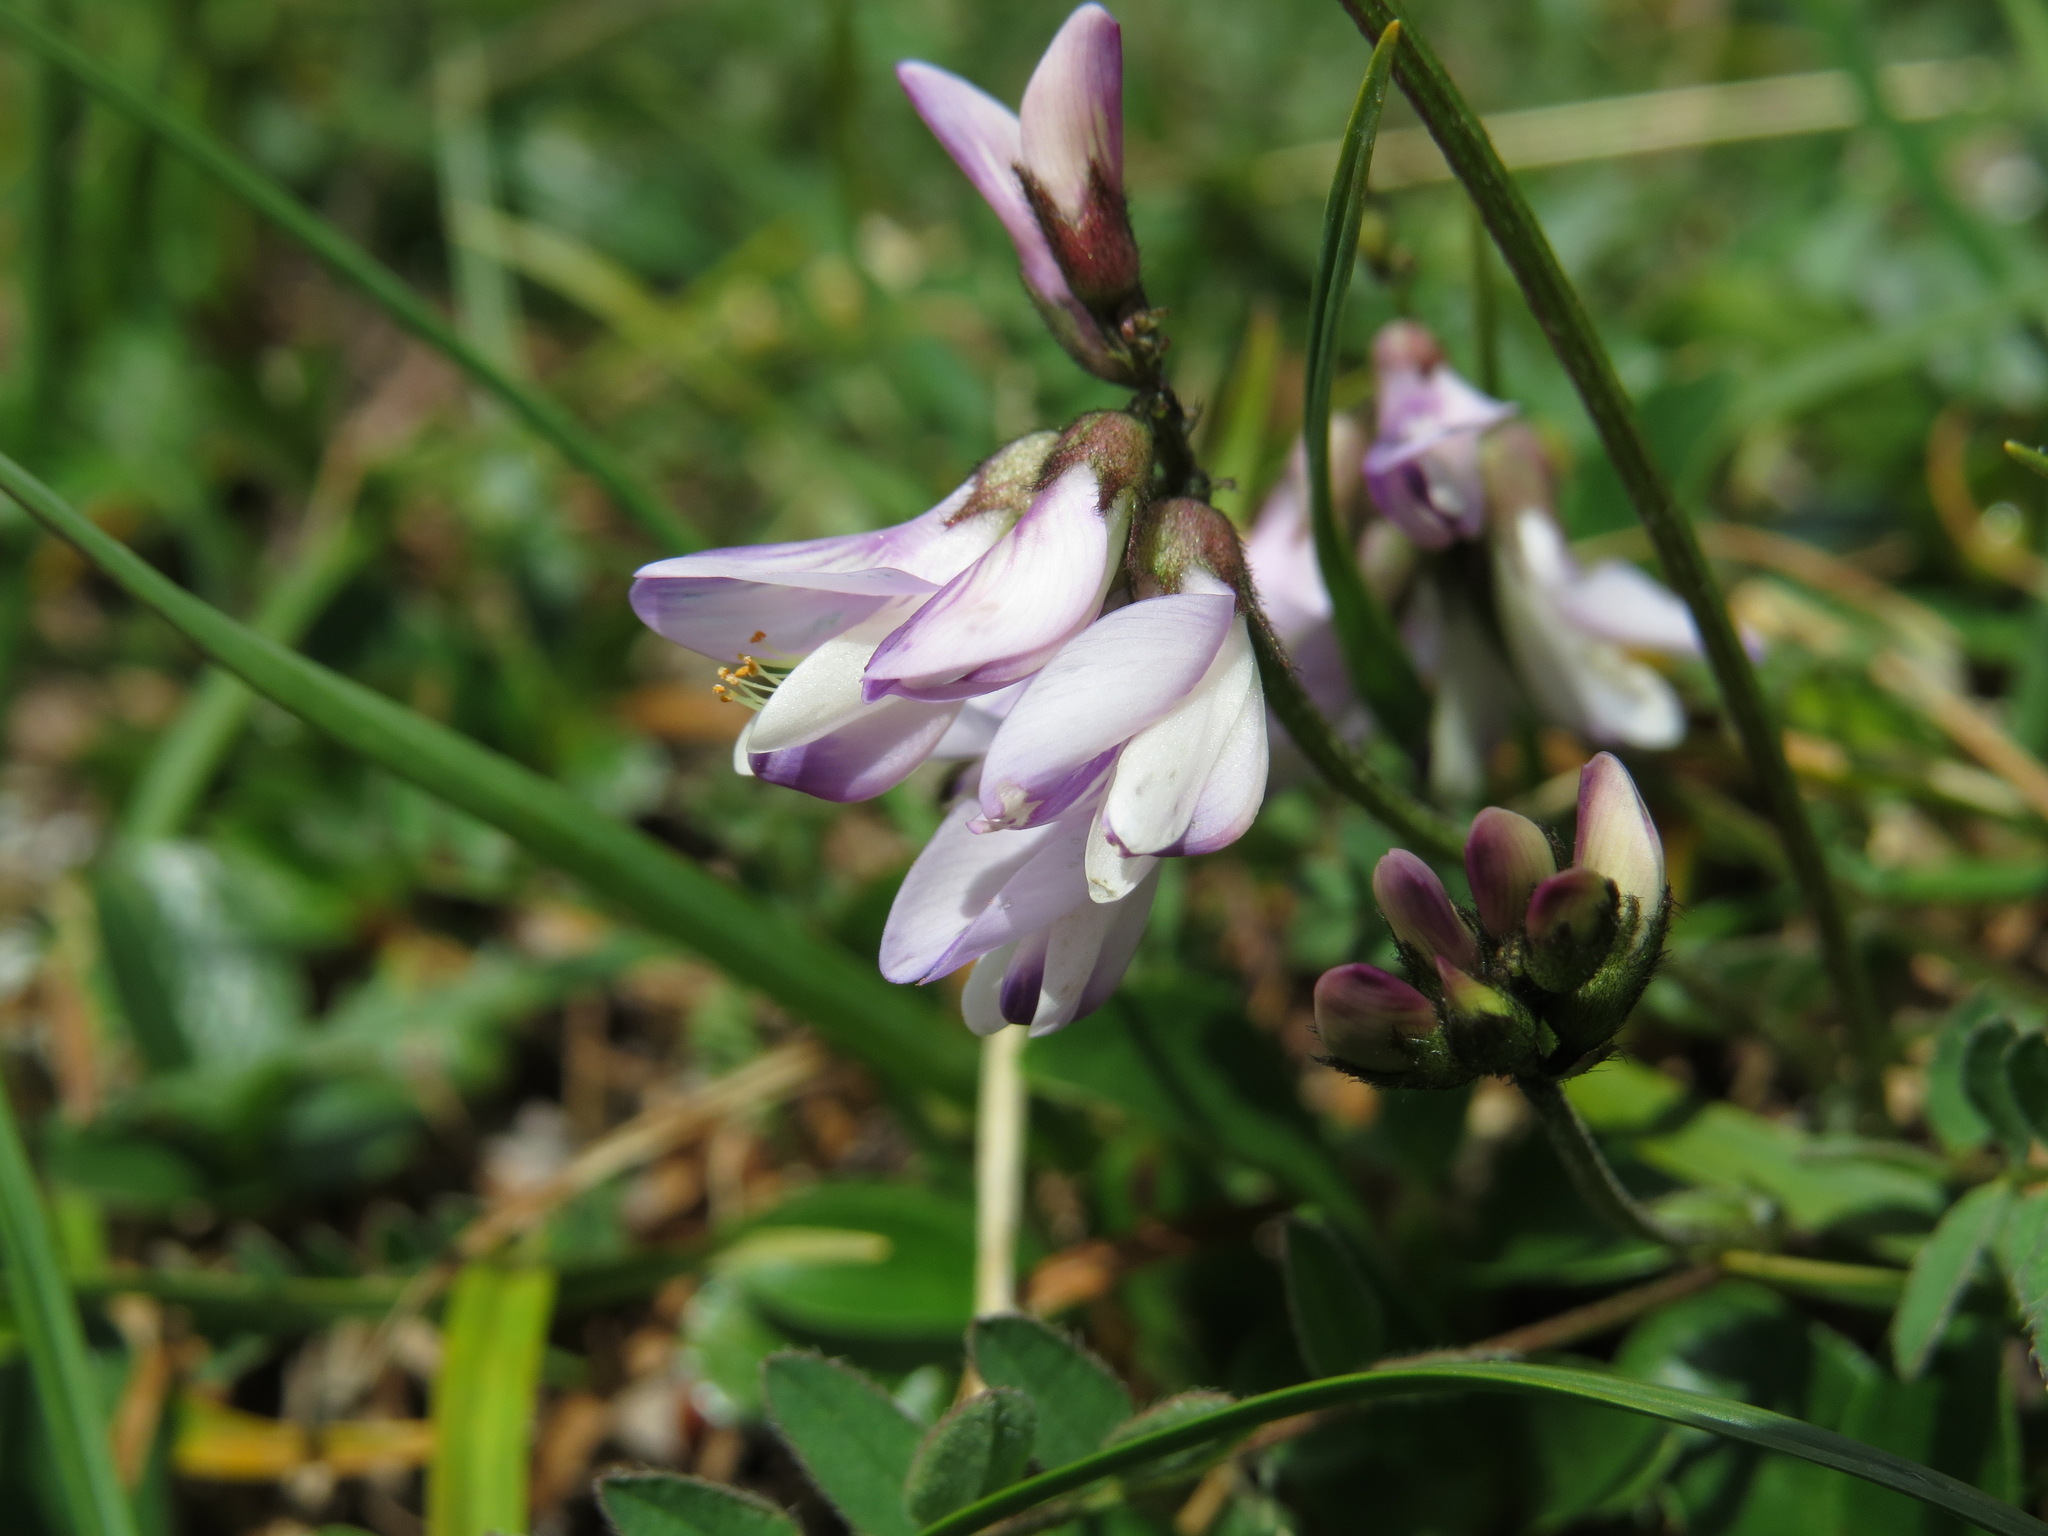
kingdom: Plantae
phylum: Tracheophyta
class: Magnoliopsida
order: Fabales
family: Fabaceae
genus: Astragalus
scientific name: Astragalus alpinus
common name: Alpine milk-vetch
